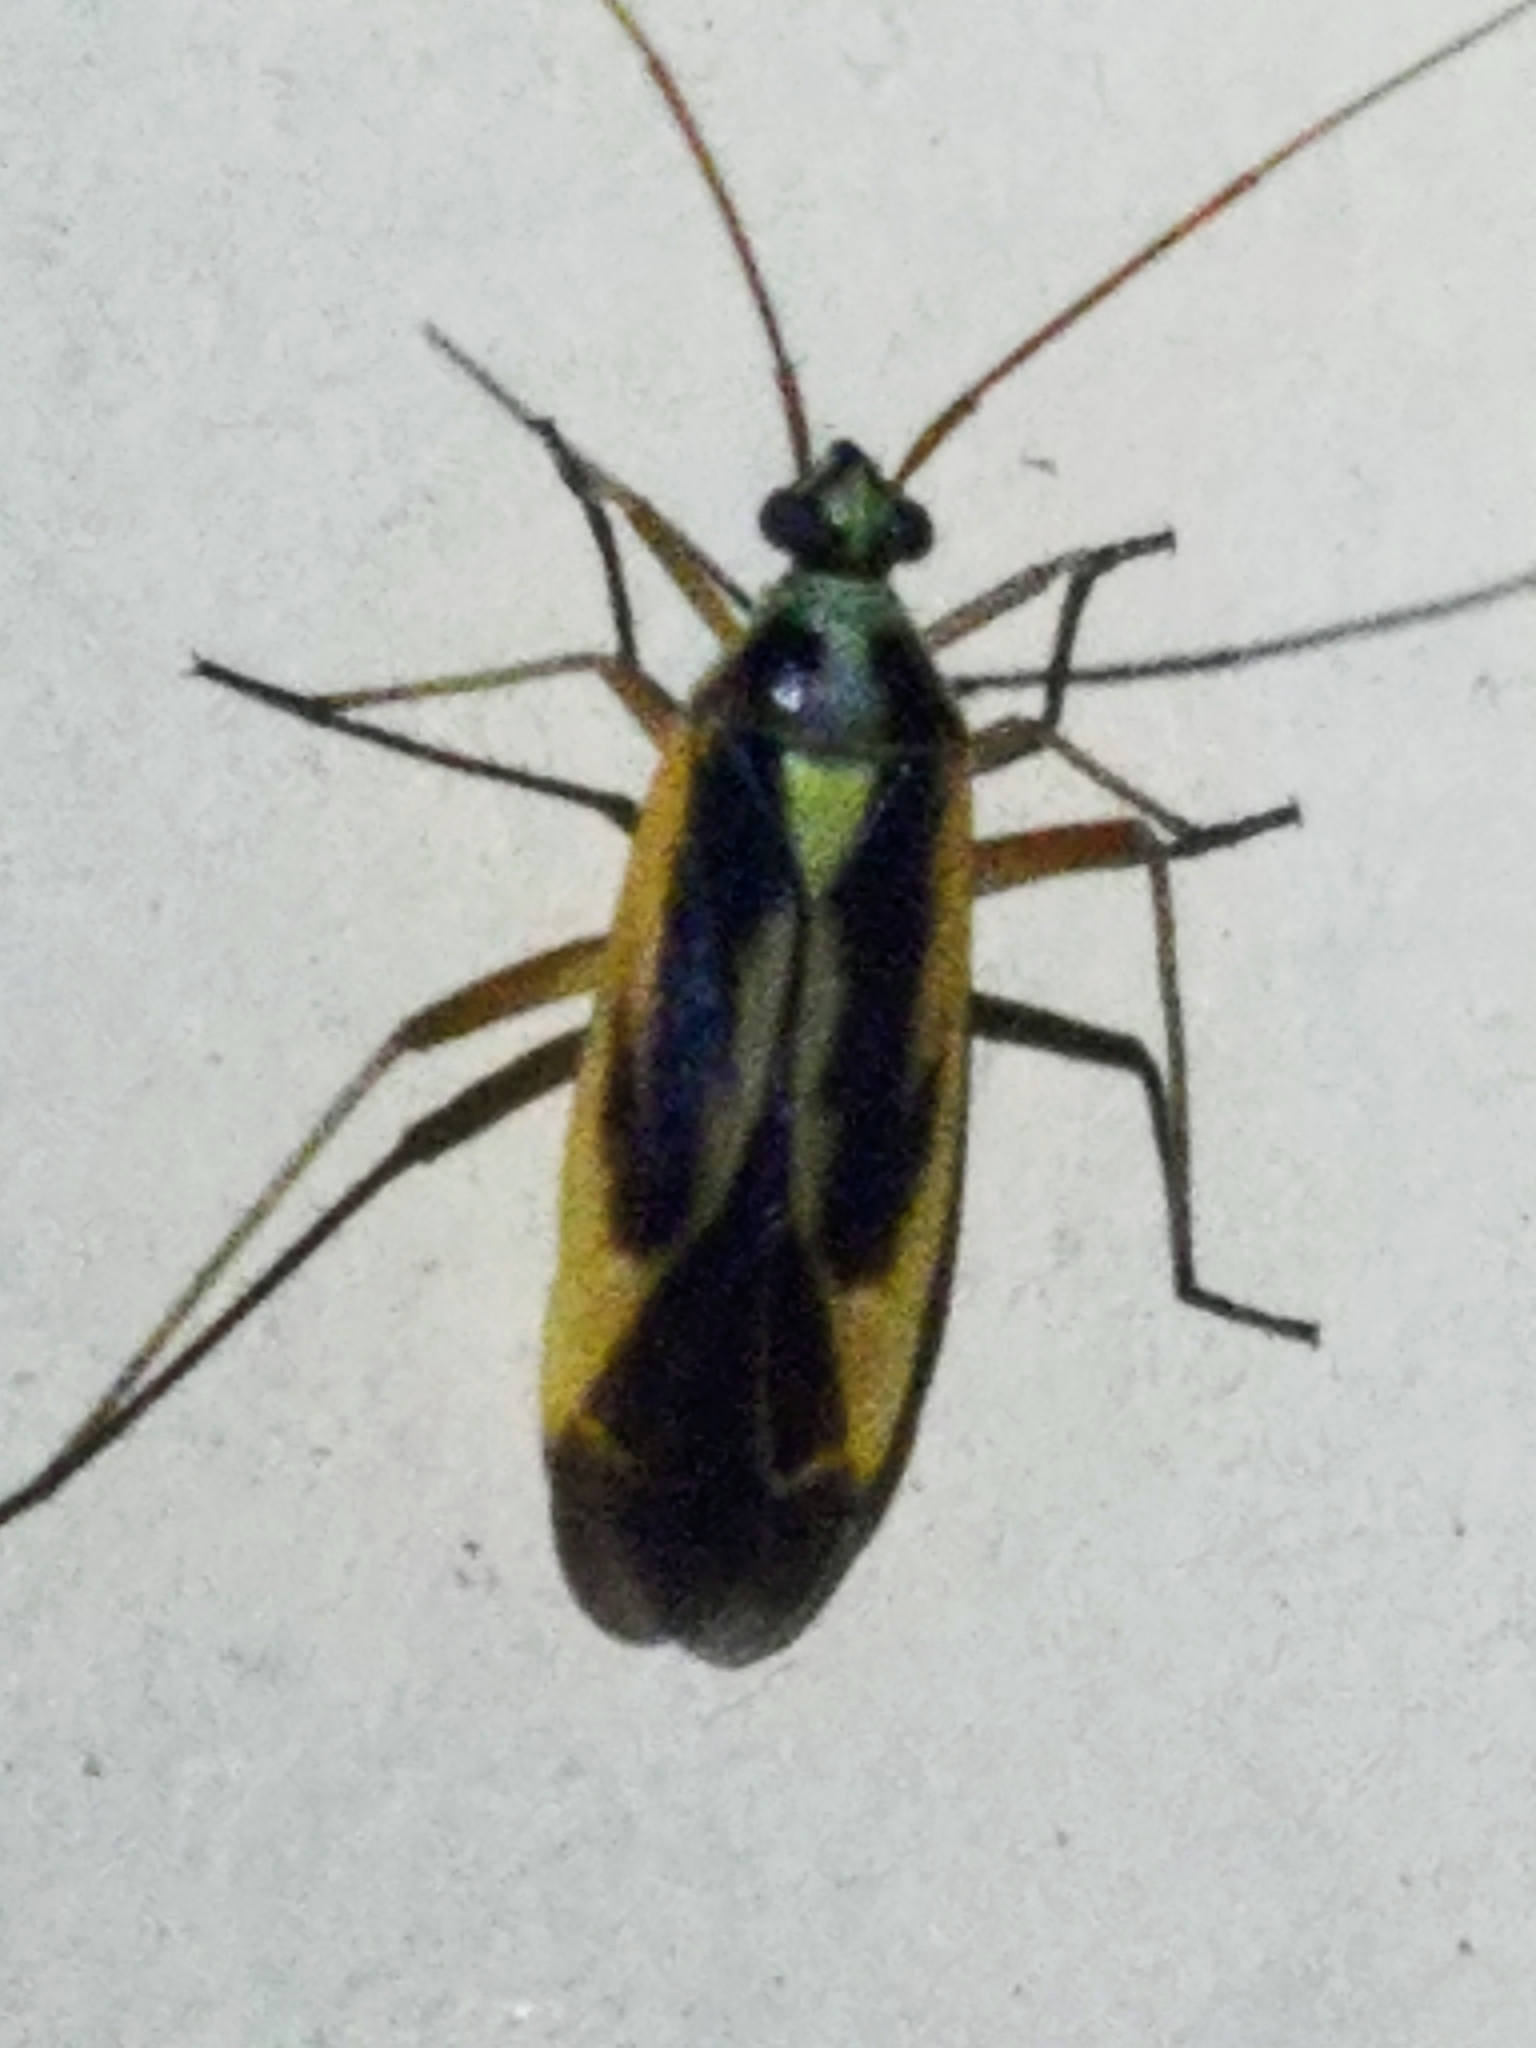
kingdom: Animalia
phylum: Arthropoda
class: Insecta
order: Hemiptera
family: Miridae
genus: Stenotus
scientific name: Stenotus binotatus
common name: Plant bug
